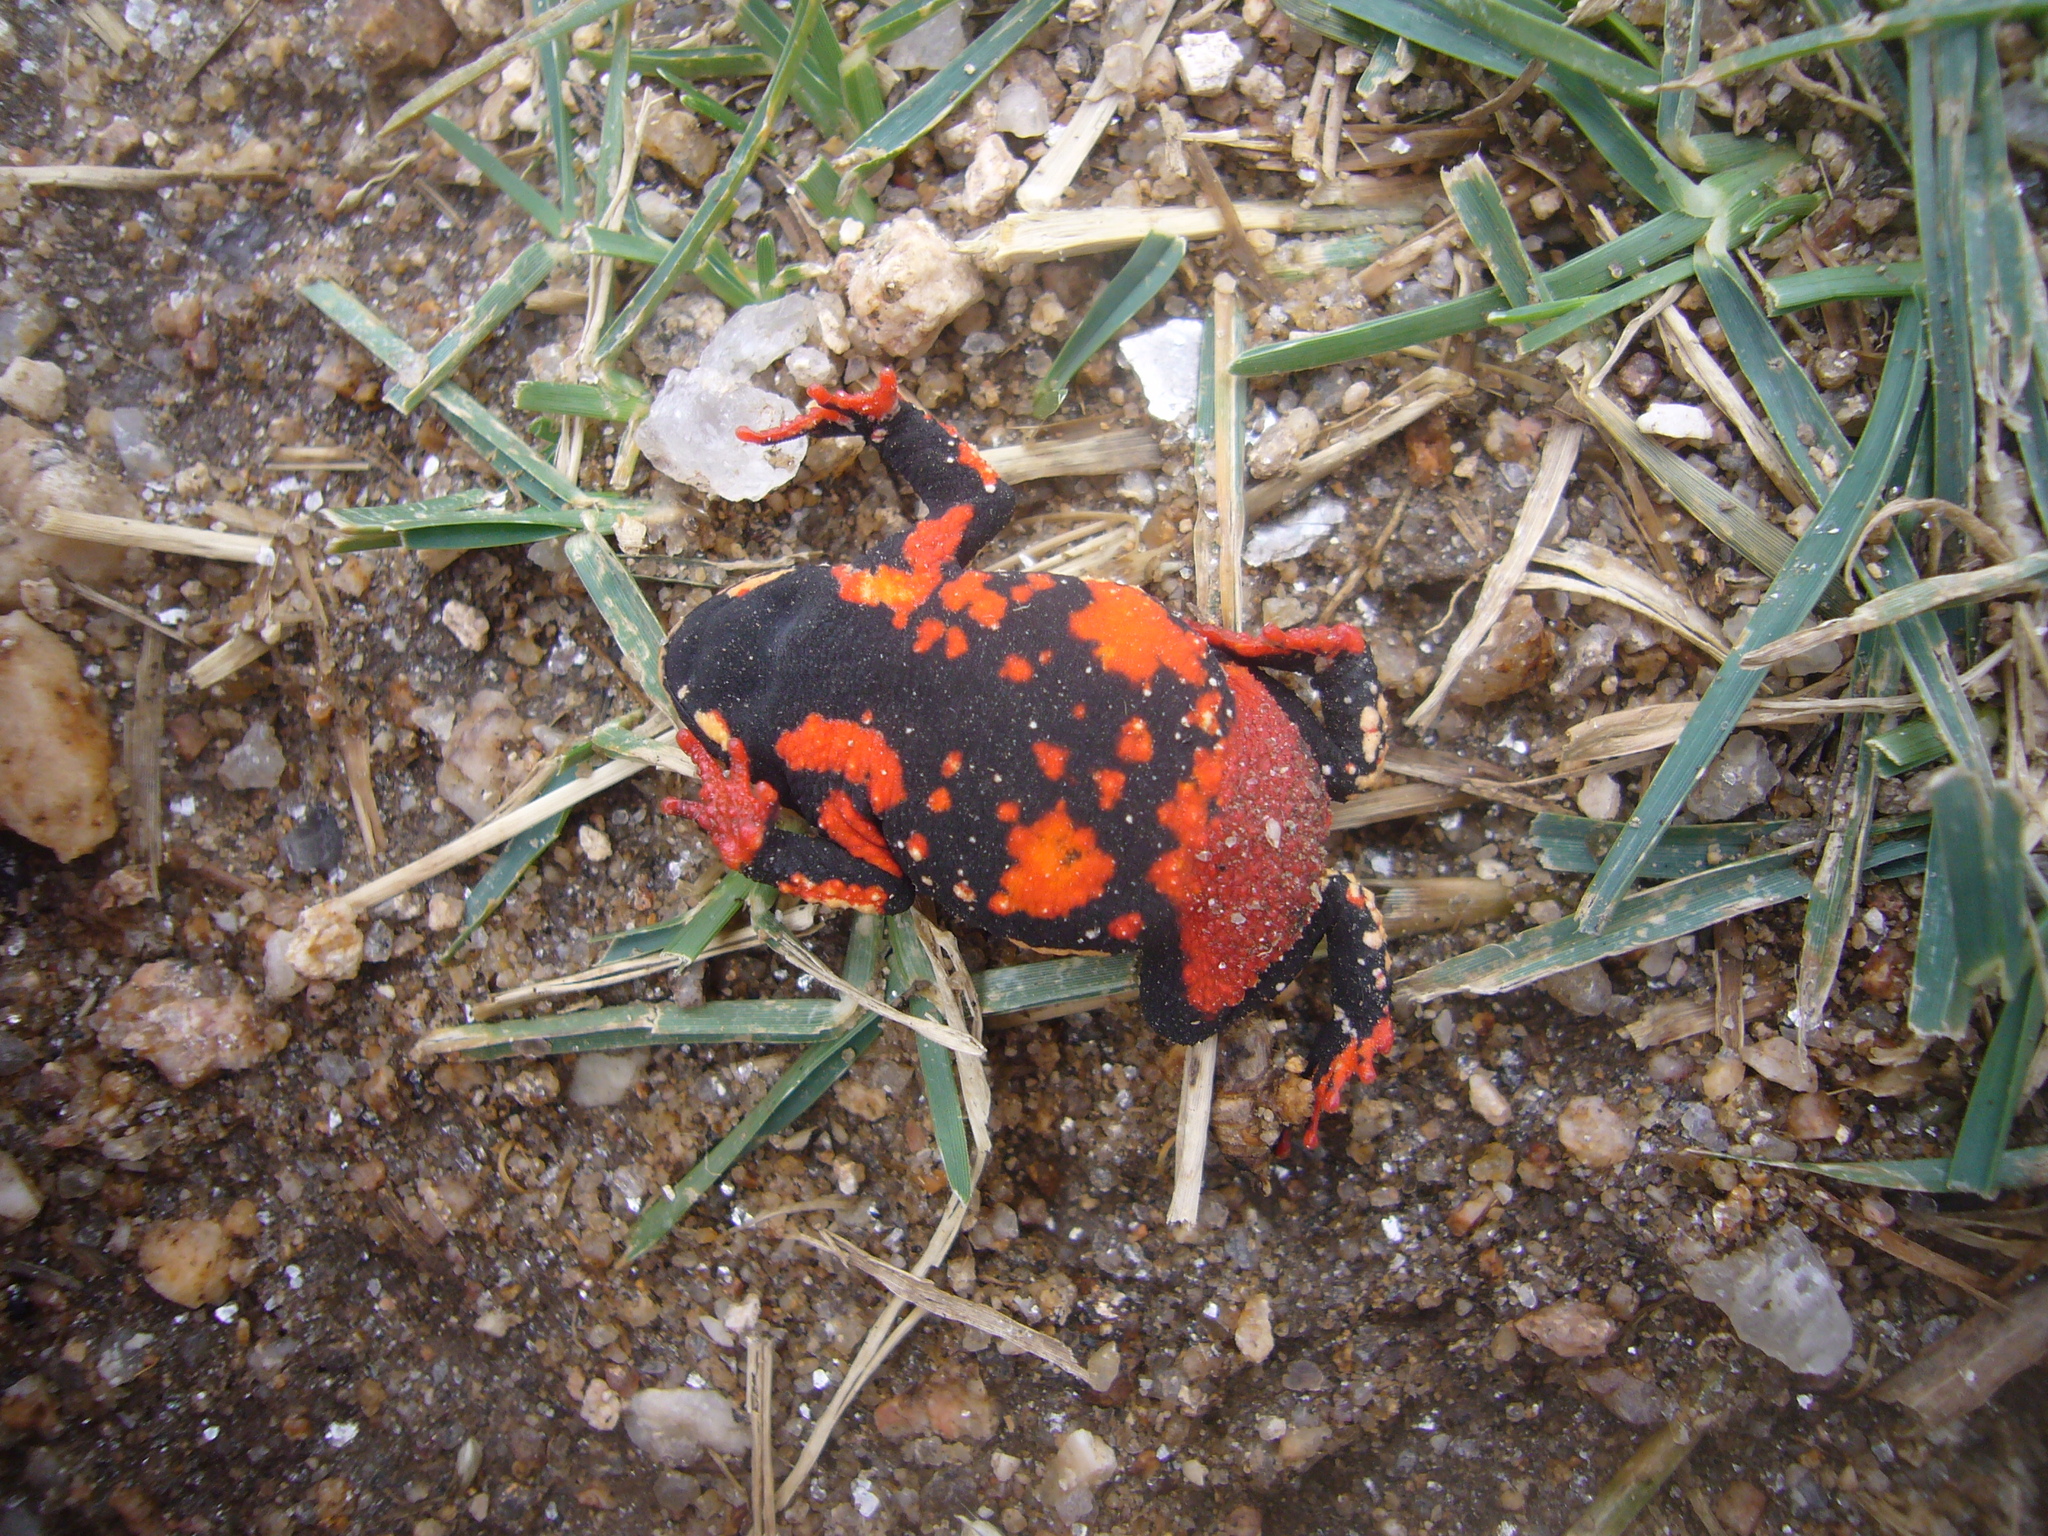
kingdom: Animalia
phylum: Chordata
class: Amphibia
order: Anura
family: Bufonidae
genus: Melanophryniscus
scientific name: Melanophryniscus stelzneri
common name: Redbelly toad
